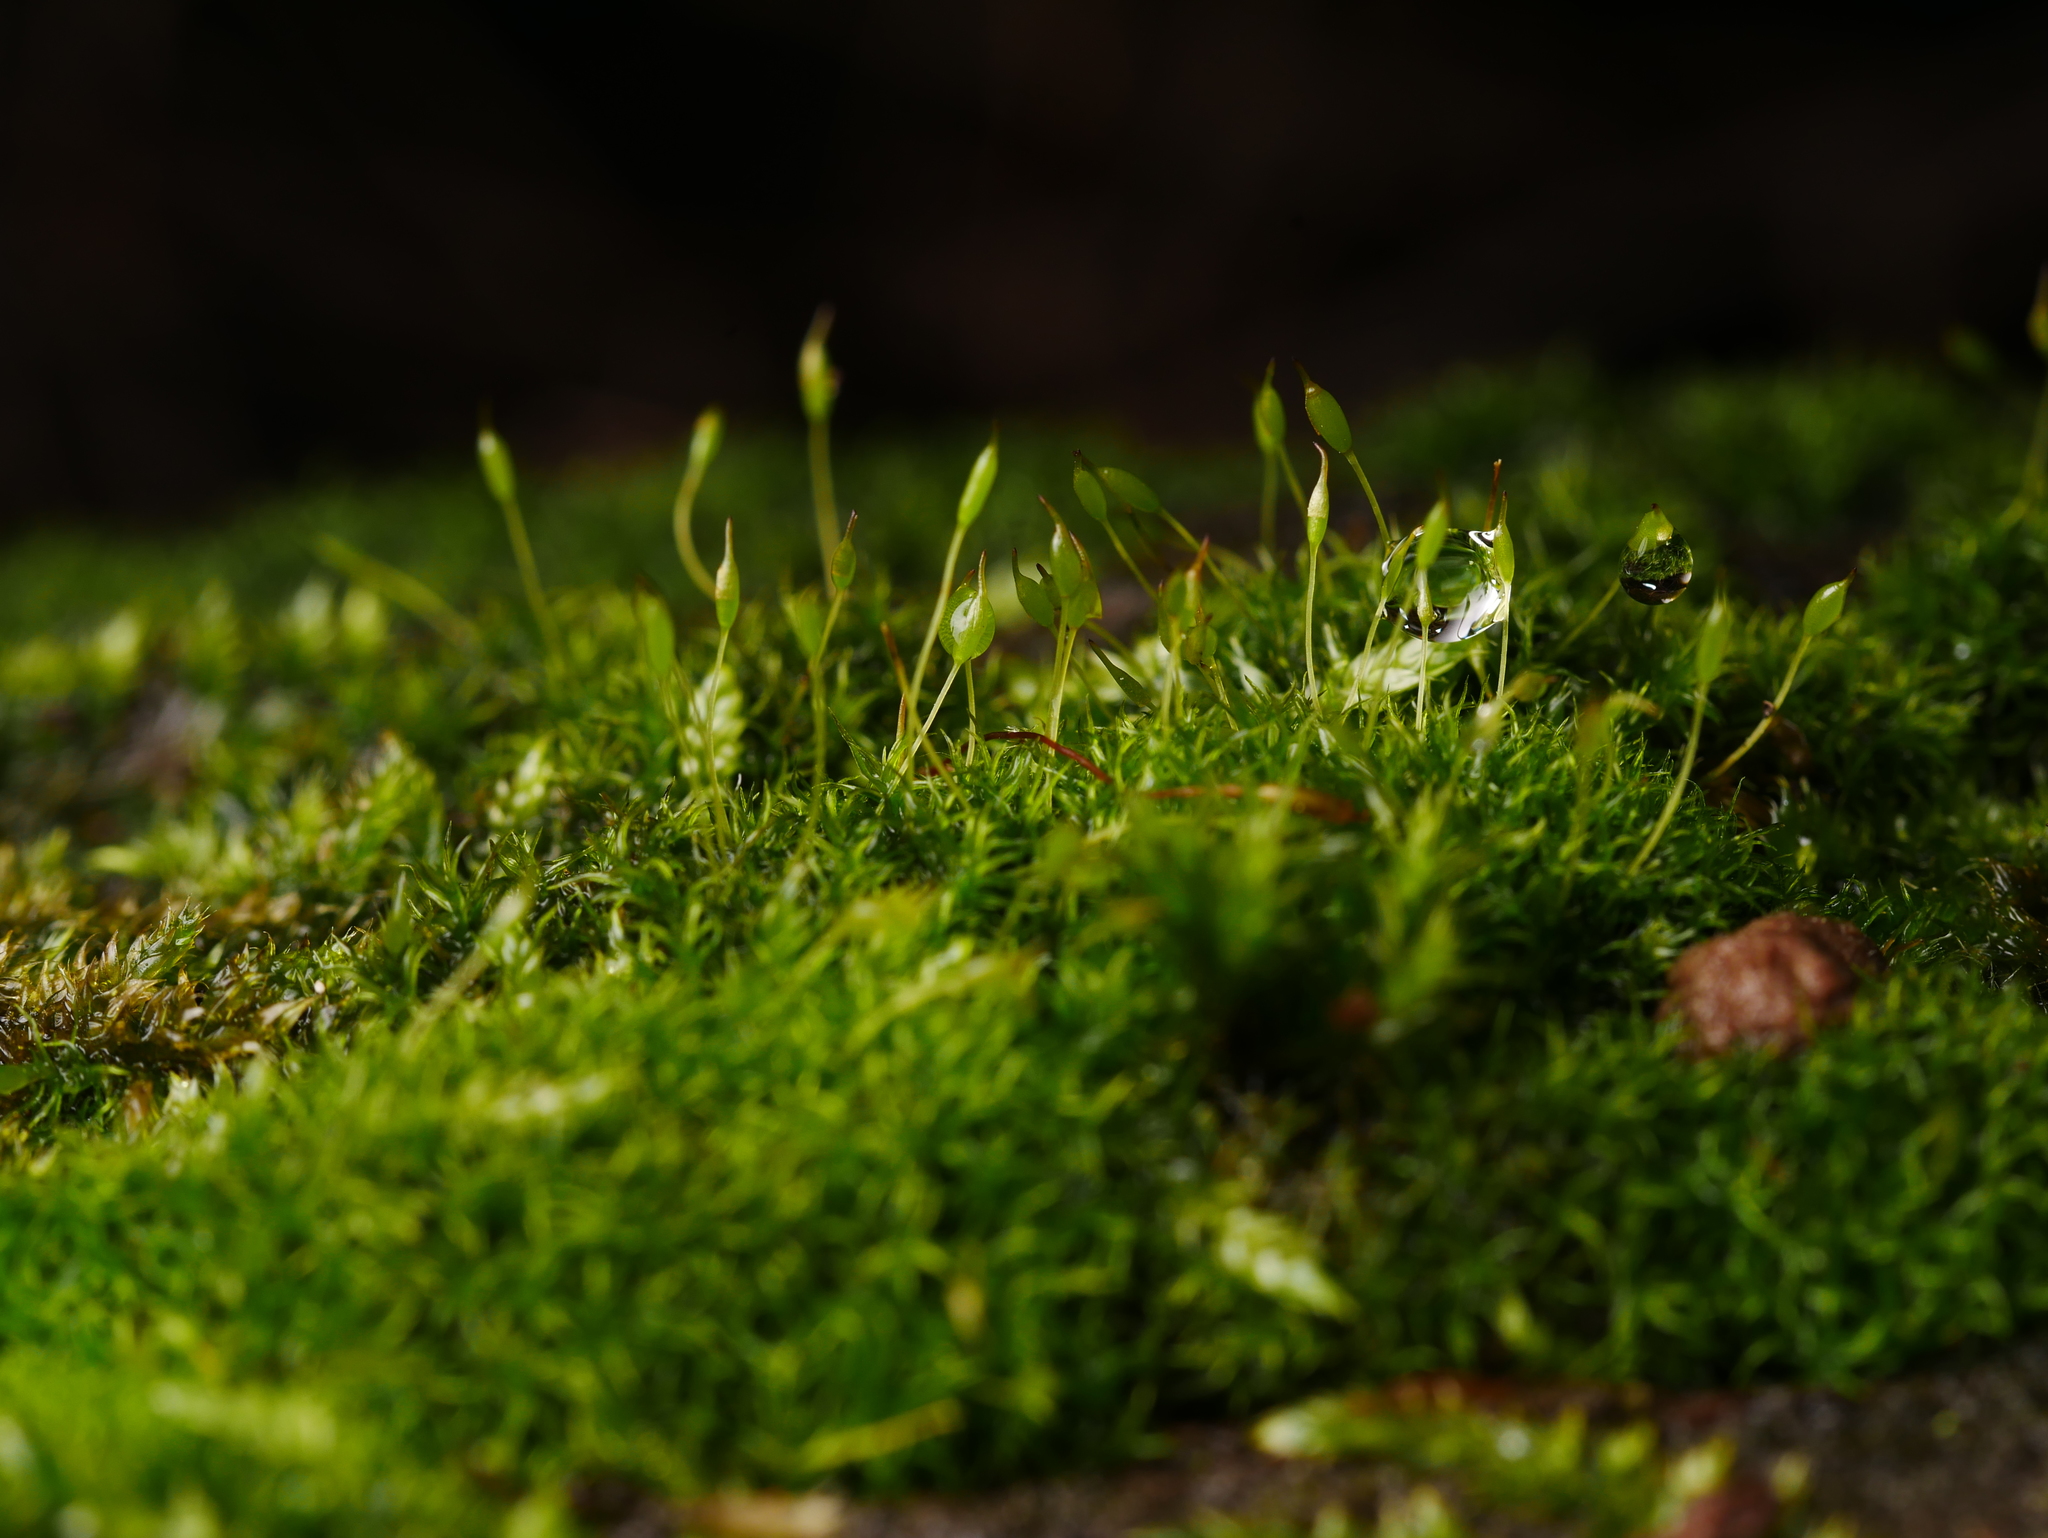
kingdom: Plantae
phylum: Bryophyta
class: Bryopsida
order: Dicranales
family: Rhabdoweisiaceae
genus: Dicranoweisia
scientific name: Dicranoweisia cirrata
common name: Common pincushion
